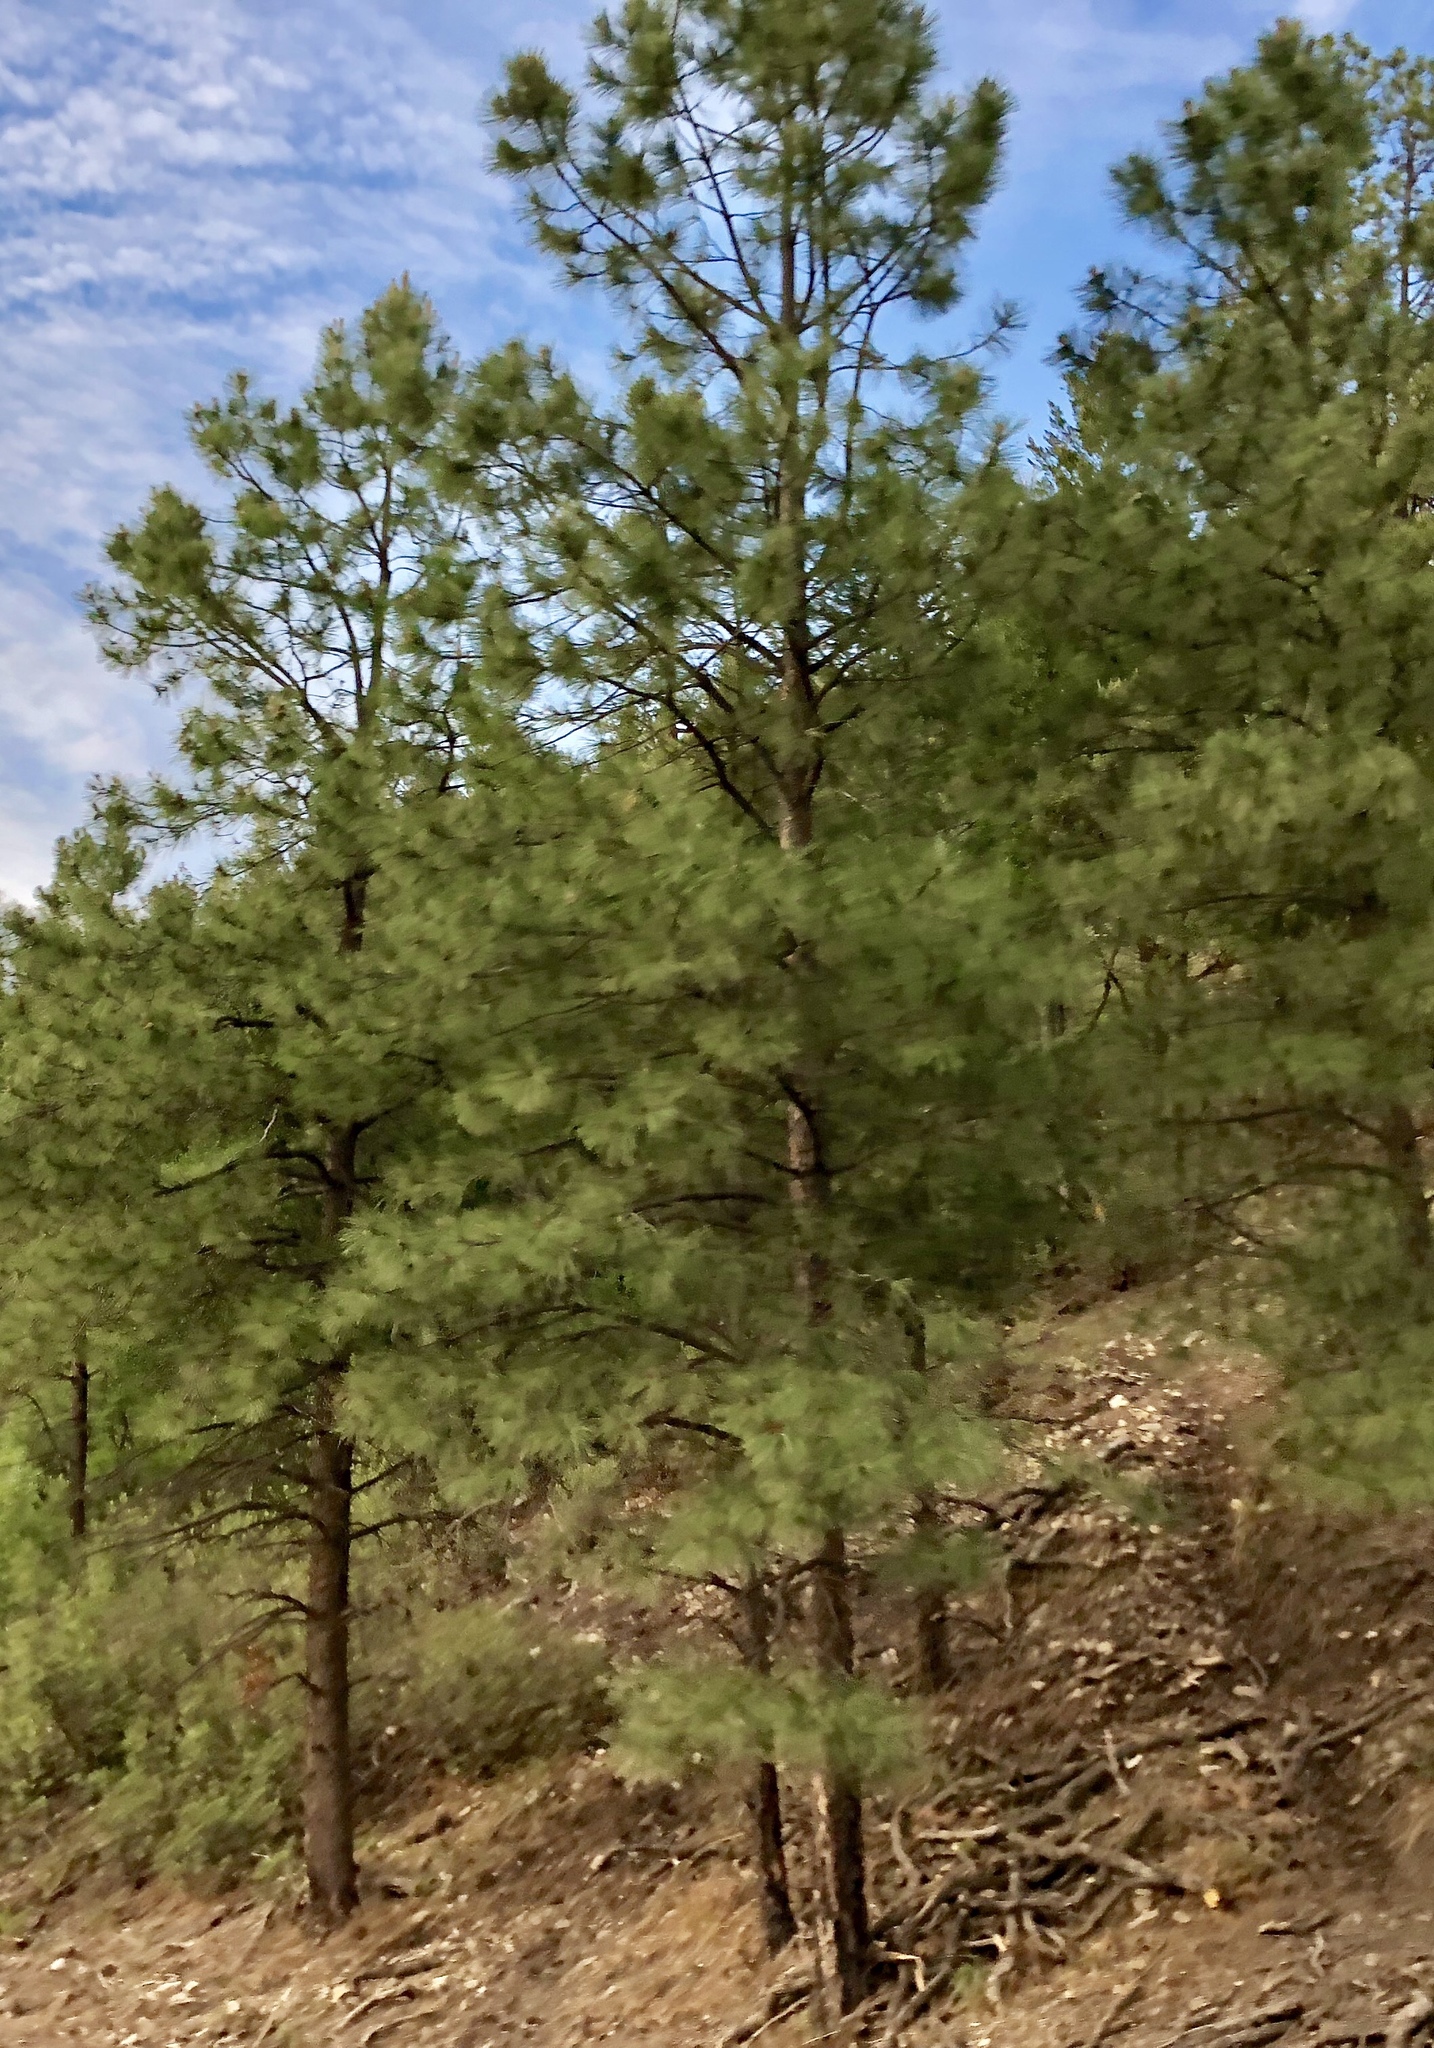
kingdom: Plantae
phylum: Tracheophyta
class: Pinopsida
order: Pinales
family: Pinaceae
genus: Pinus
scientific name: Pinus ponderosa
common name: Western yellow-pine
